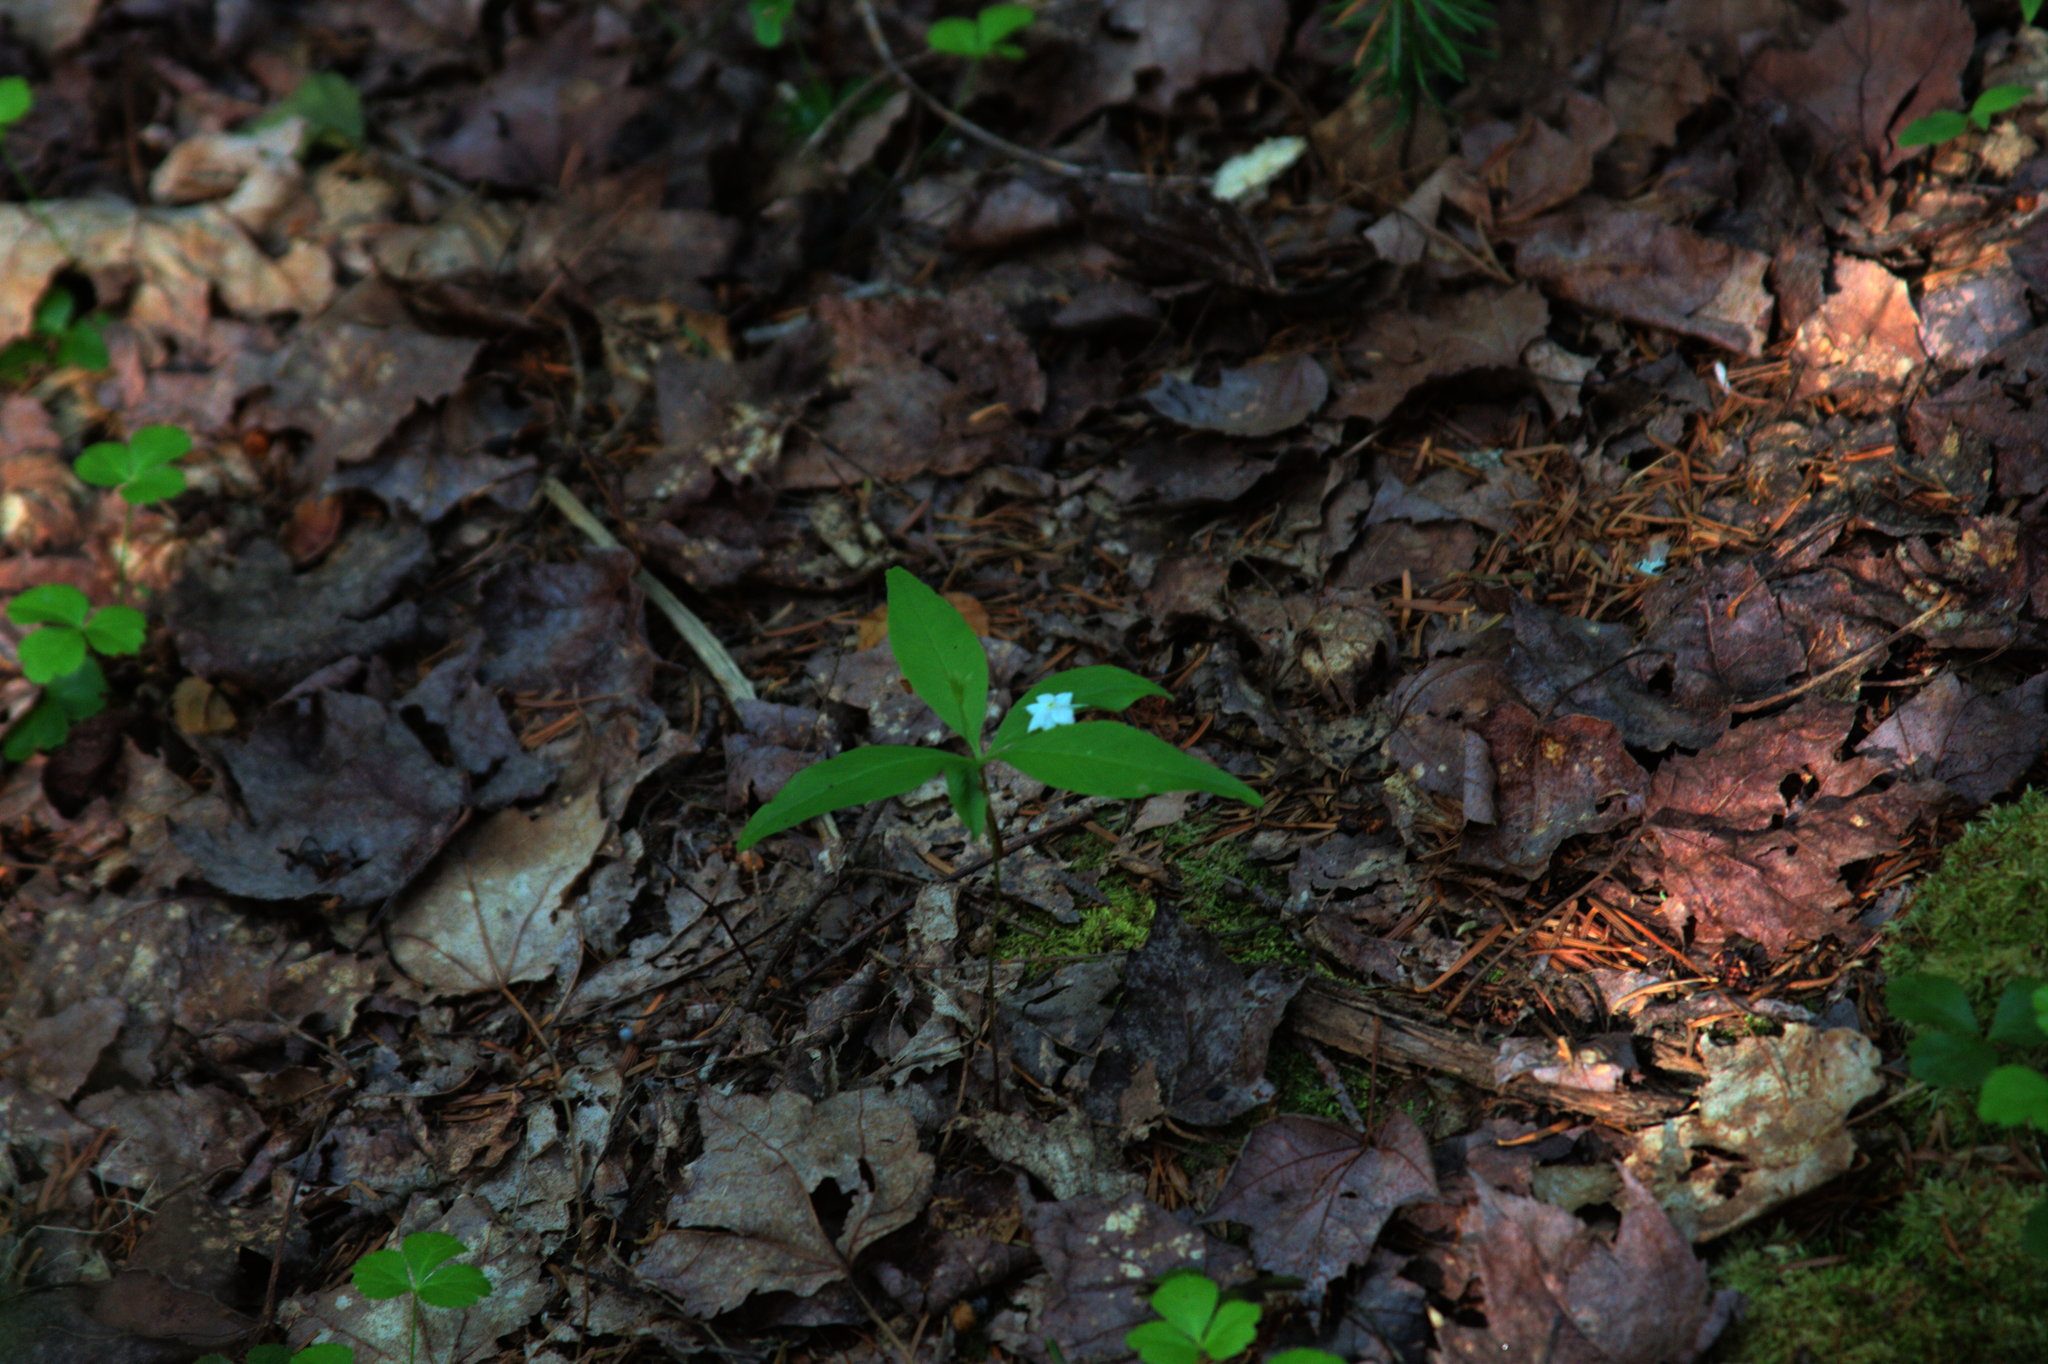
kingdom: Plantae
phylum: Tracheophyta
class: Magnoliopsida
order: Ericales
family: Primulaceae
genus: Lysimachia
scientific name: Lysimachia borealis
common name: American starflower
